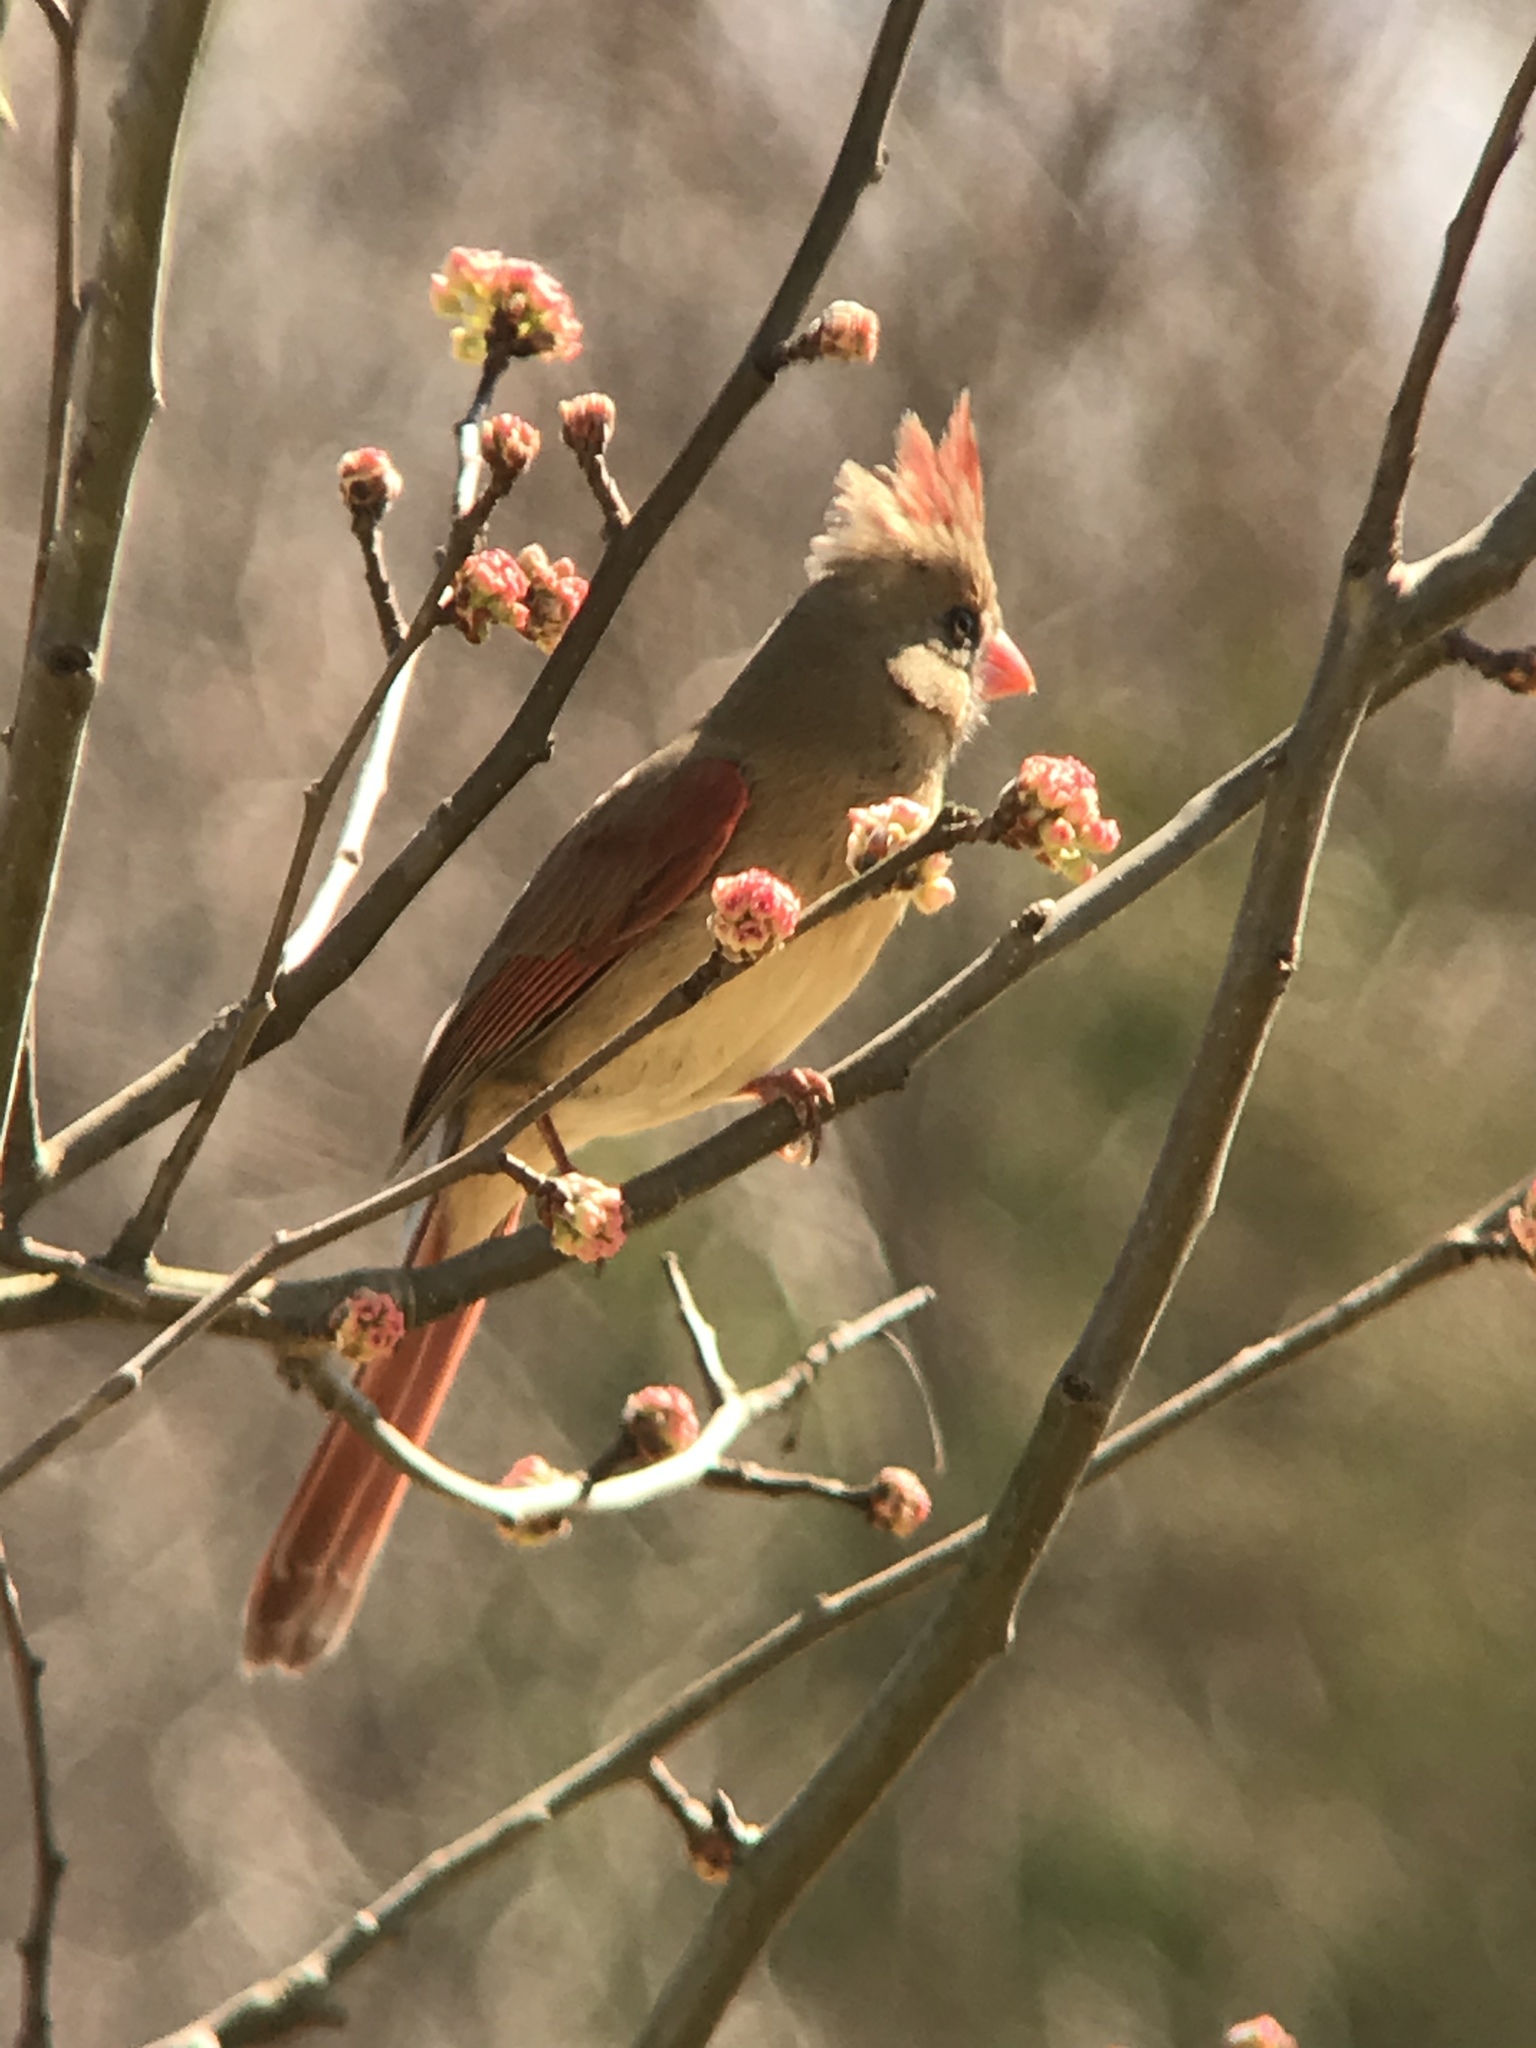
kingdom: Animalia
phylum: Chordata
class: Aves
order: Passeriformes
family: Cardinalidae
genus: Cardinalis
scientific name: Cardinalis cardinalis
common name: Northern cardinal
